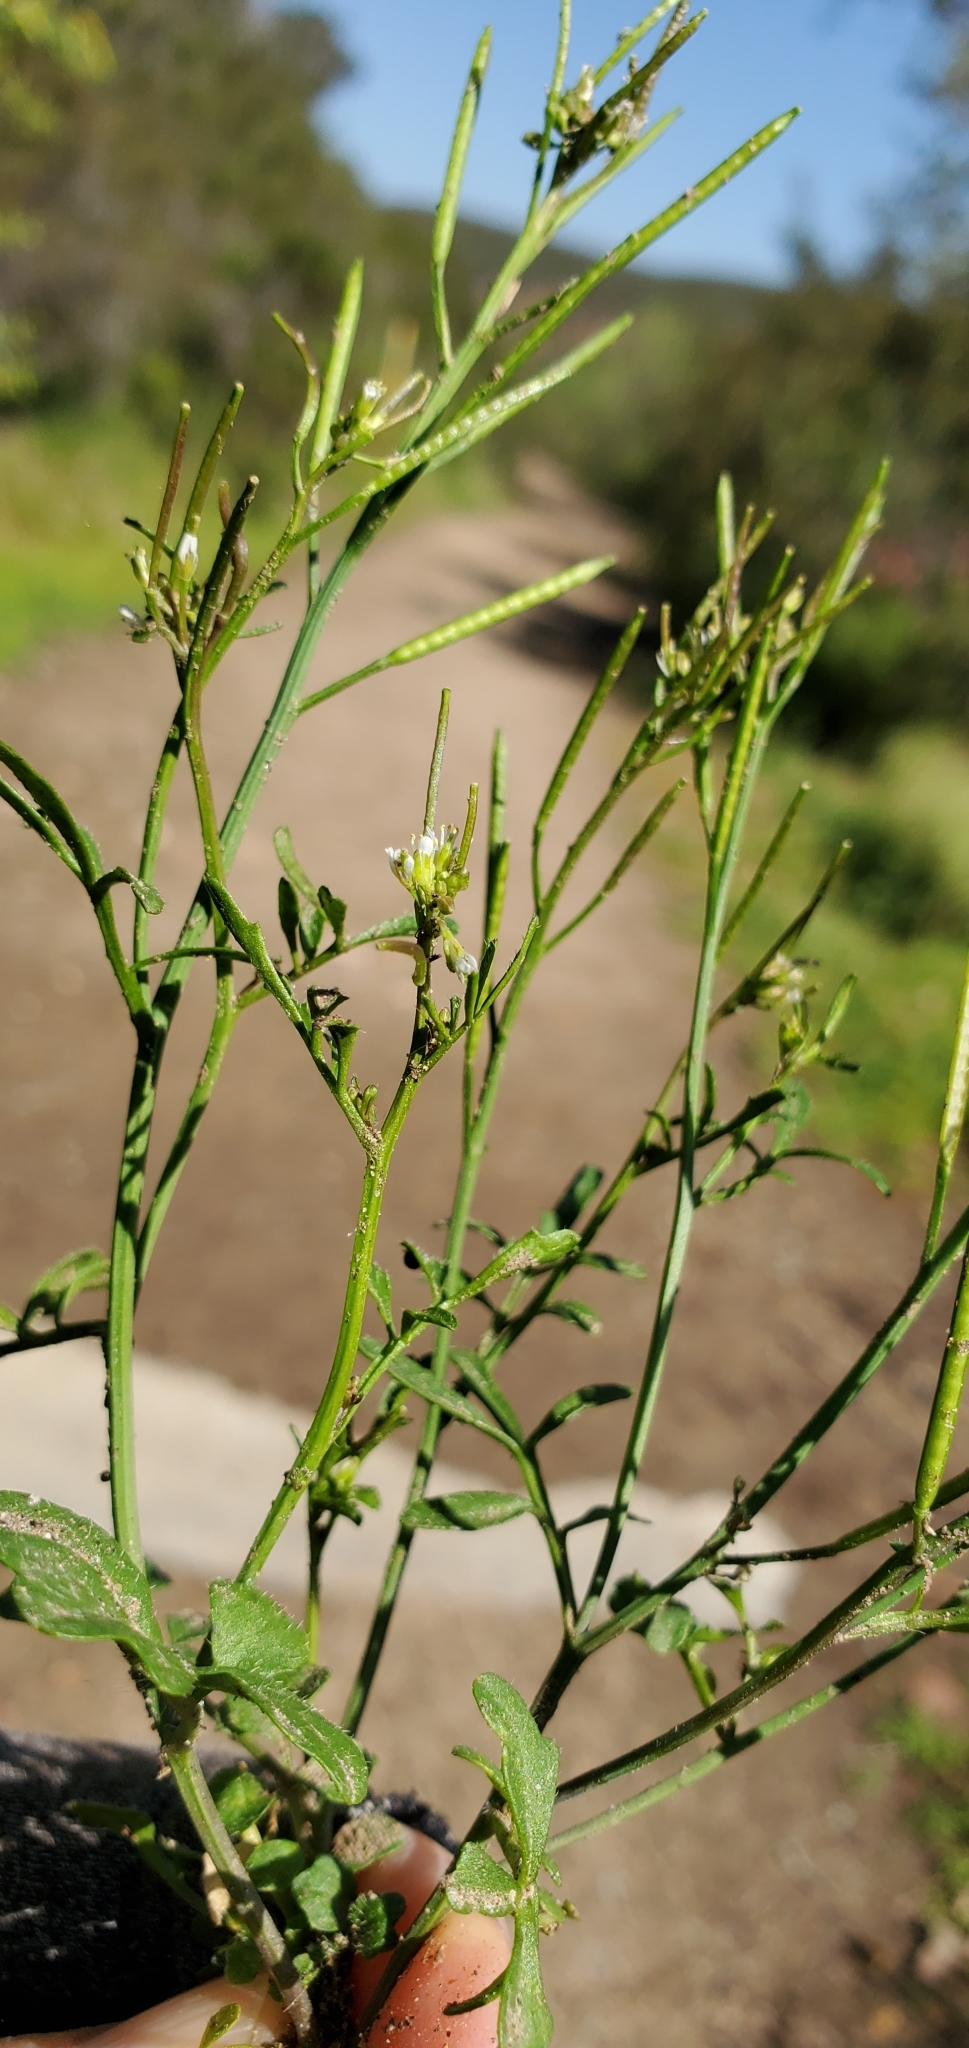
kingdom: Plantae
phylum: Tracheophyta
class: Magnoliopsida
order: Brassicales
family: Brassicaceae
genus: Cardamine
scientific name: Cardamine hirsuta
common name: Hairy bittercress
